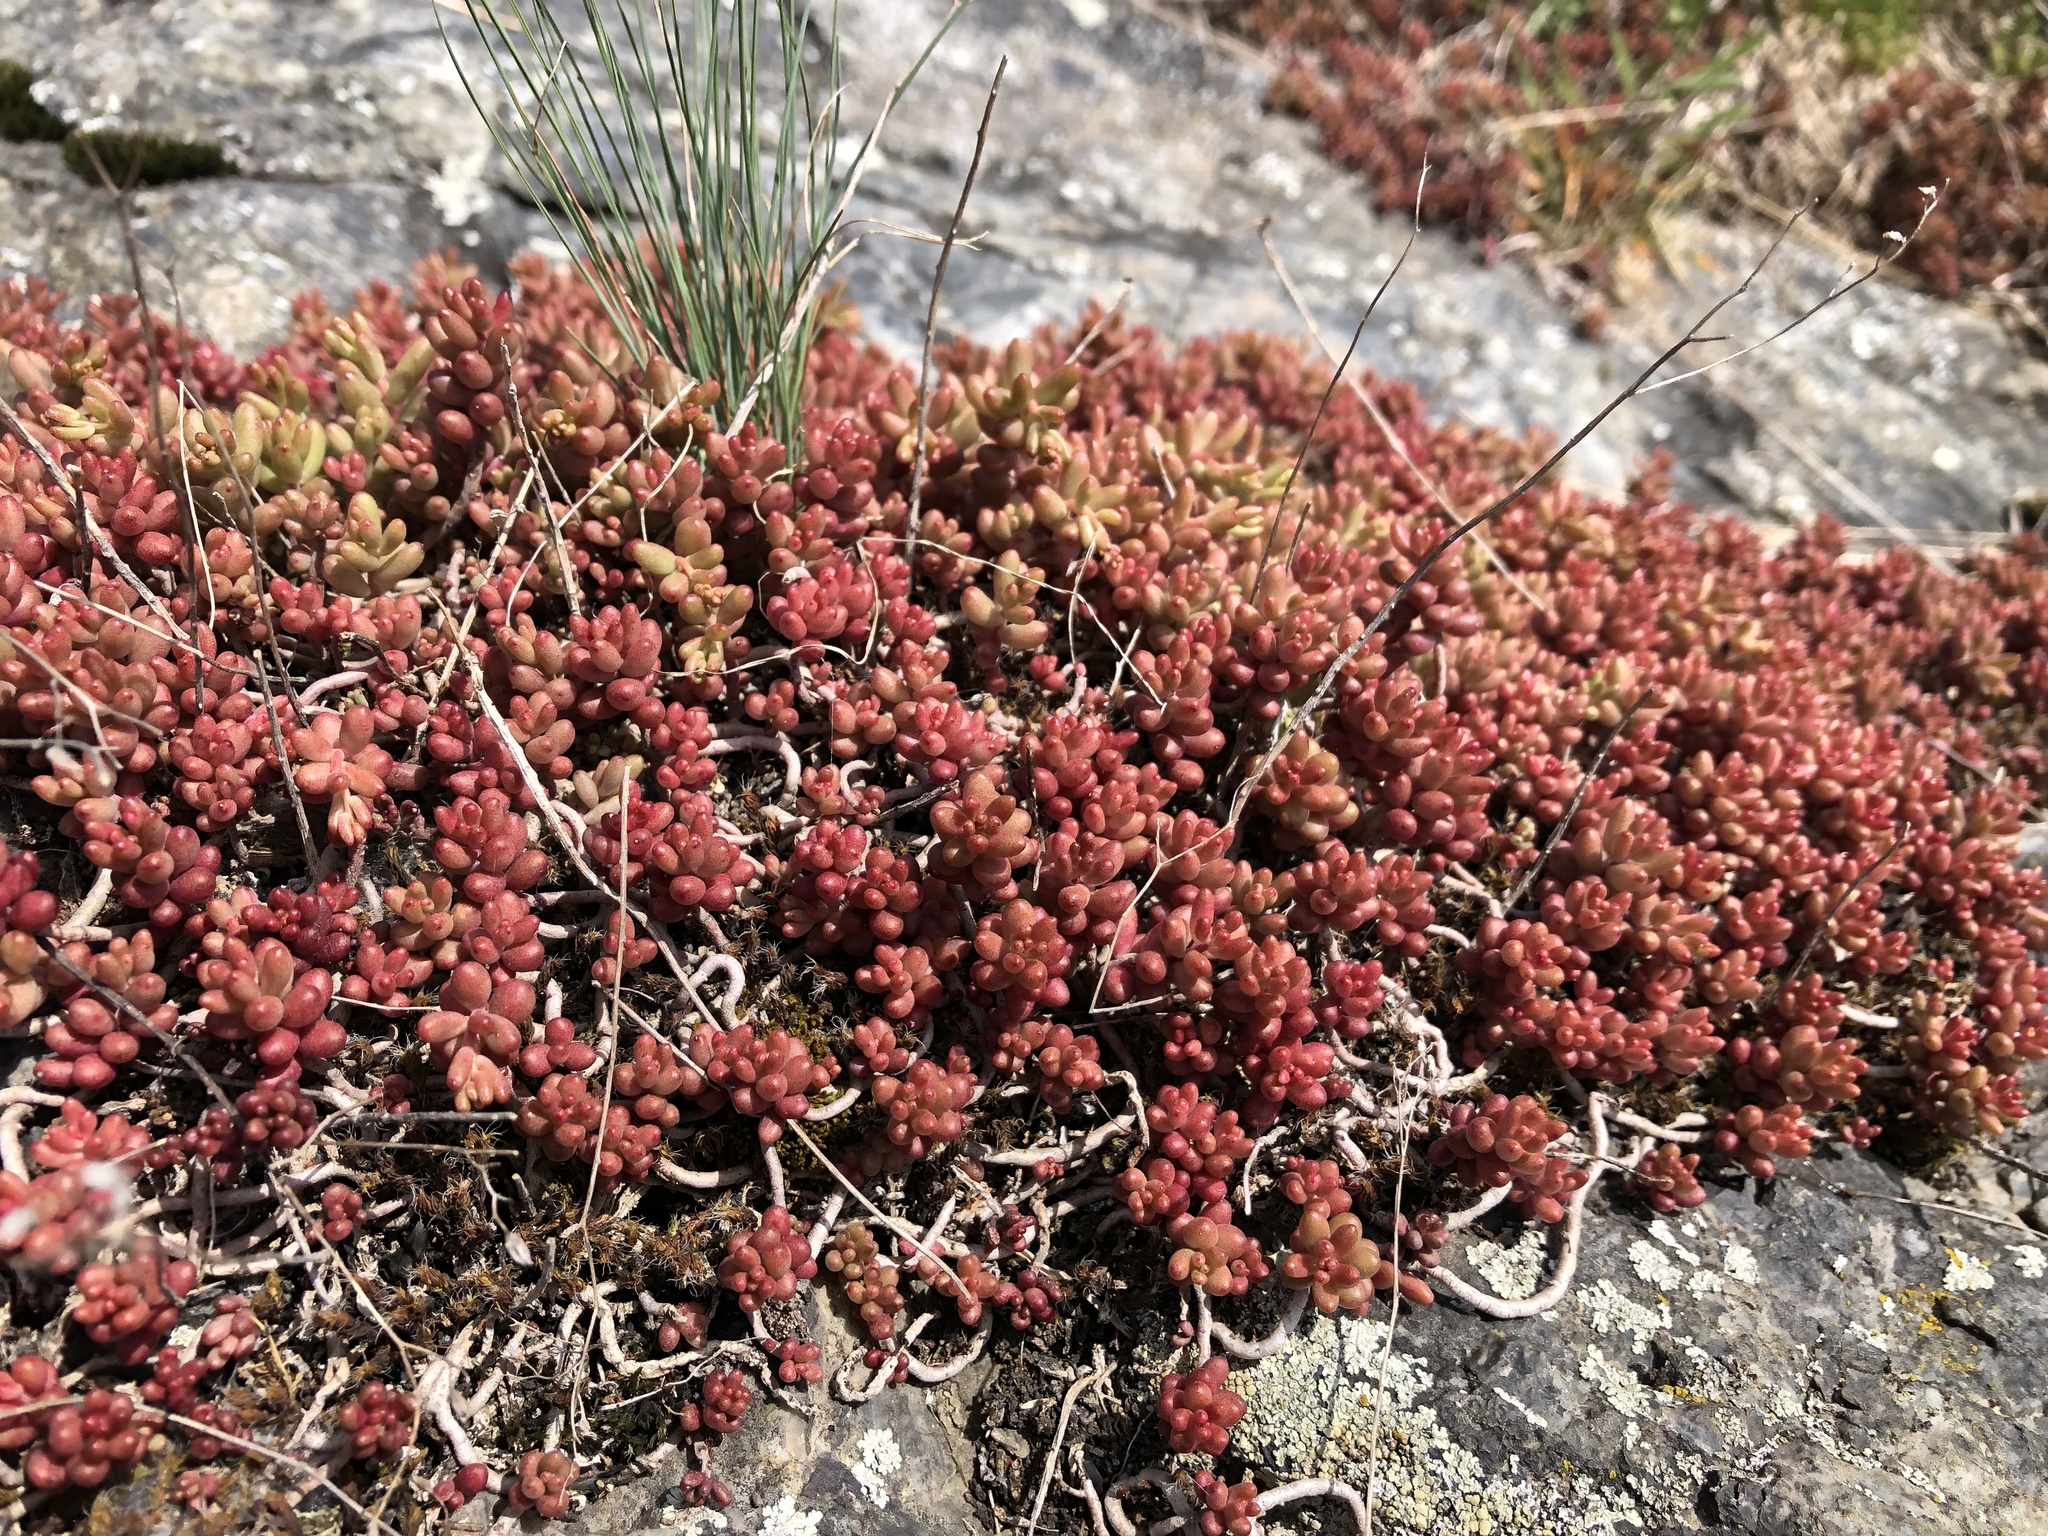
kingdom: Plantae
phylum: Tracheophyta
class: Magnoliopsida
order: Saxifragales
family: Crassulaceae
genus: Sedum
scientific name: Sedum album
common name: White stonecrop
